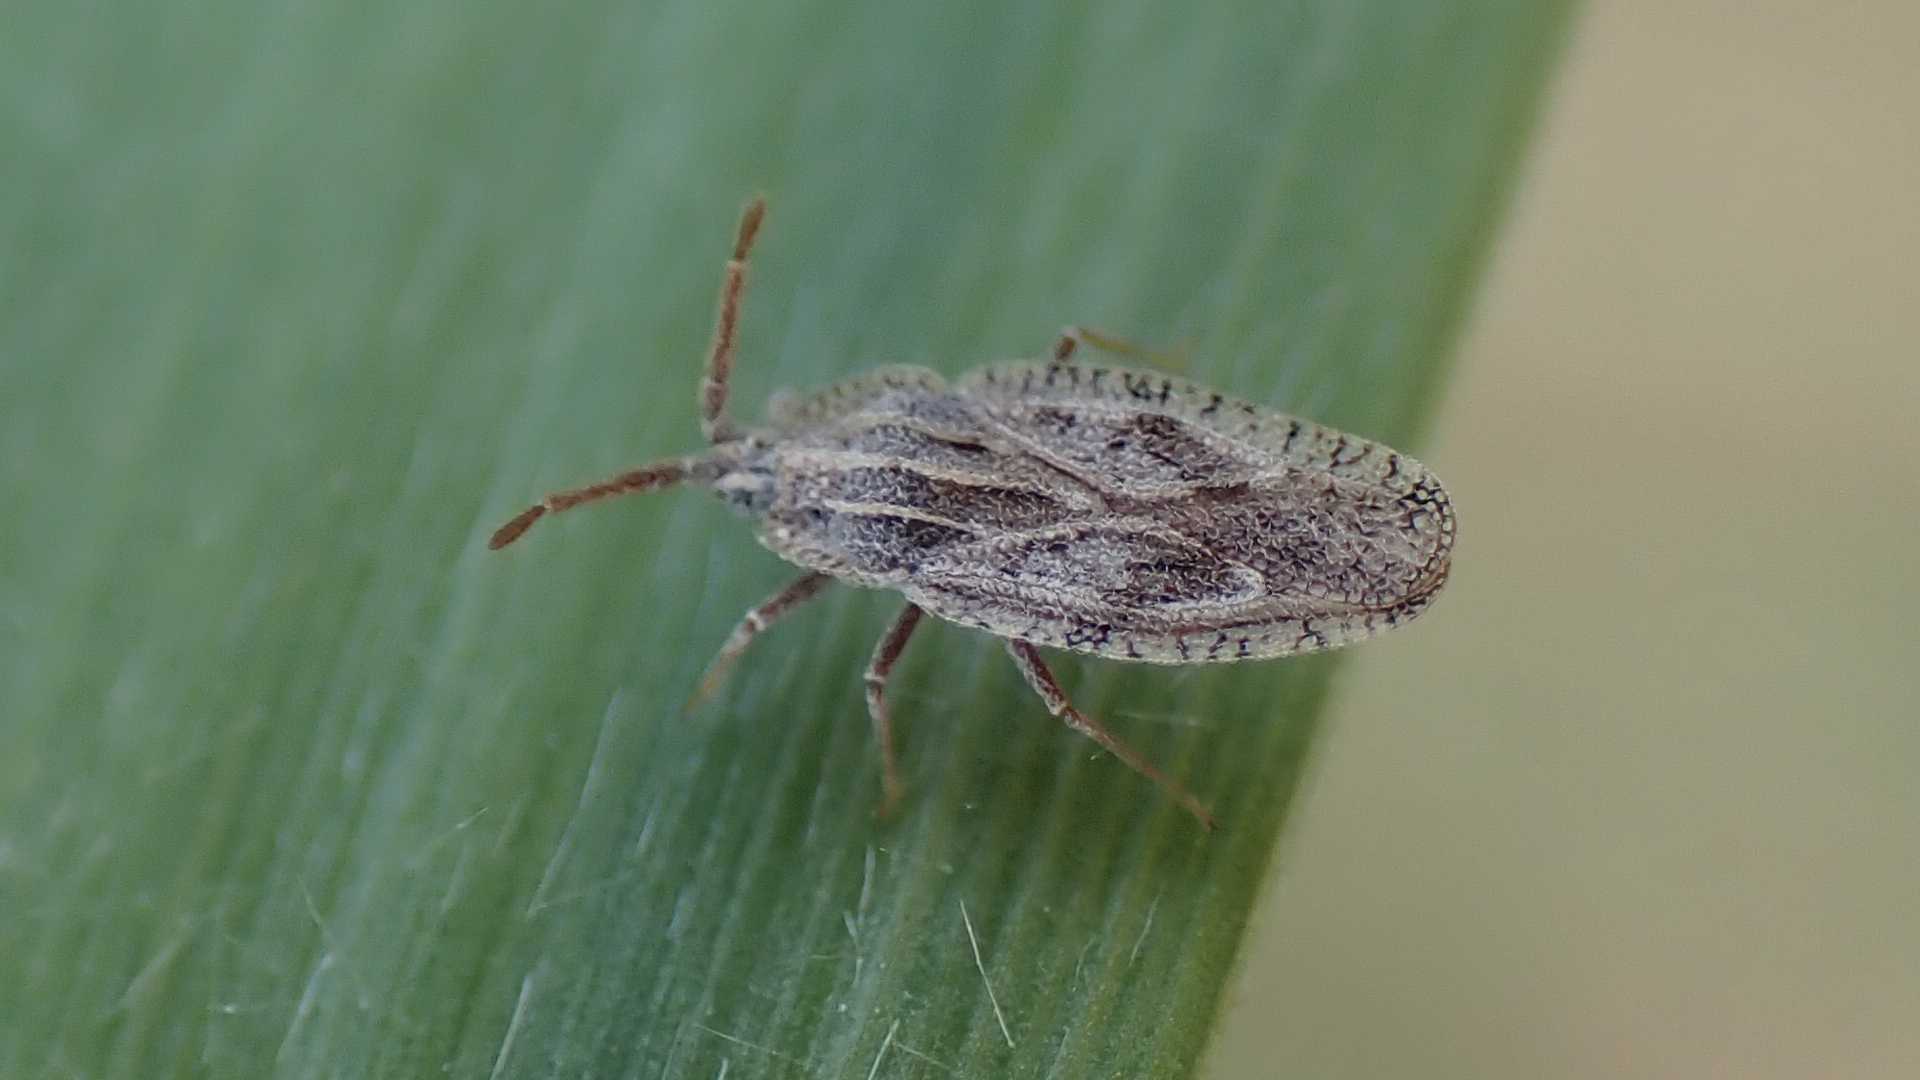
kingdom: Animalia
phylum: Arthropoda
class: Insecta
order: Hemiptera
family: Tingidae
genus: Tingis
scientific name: Tingis crispata
